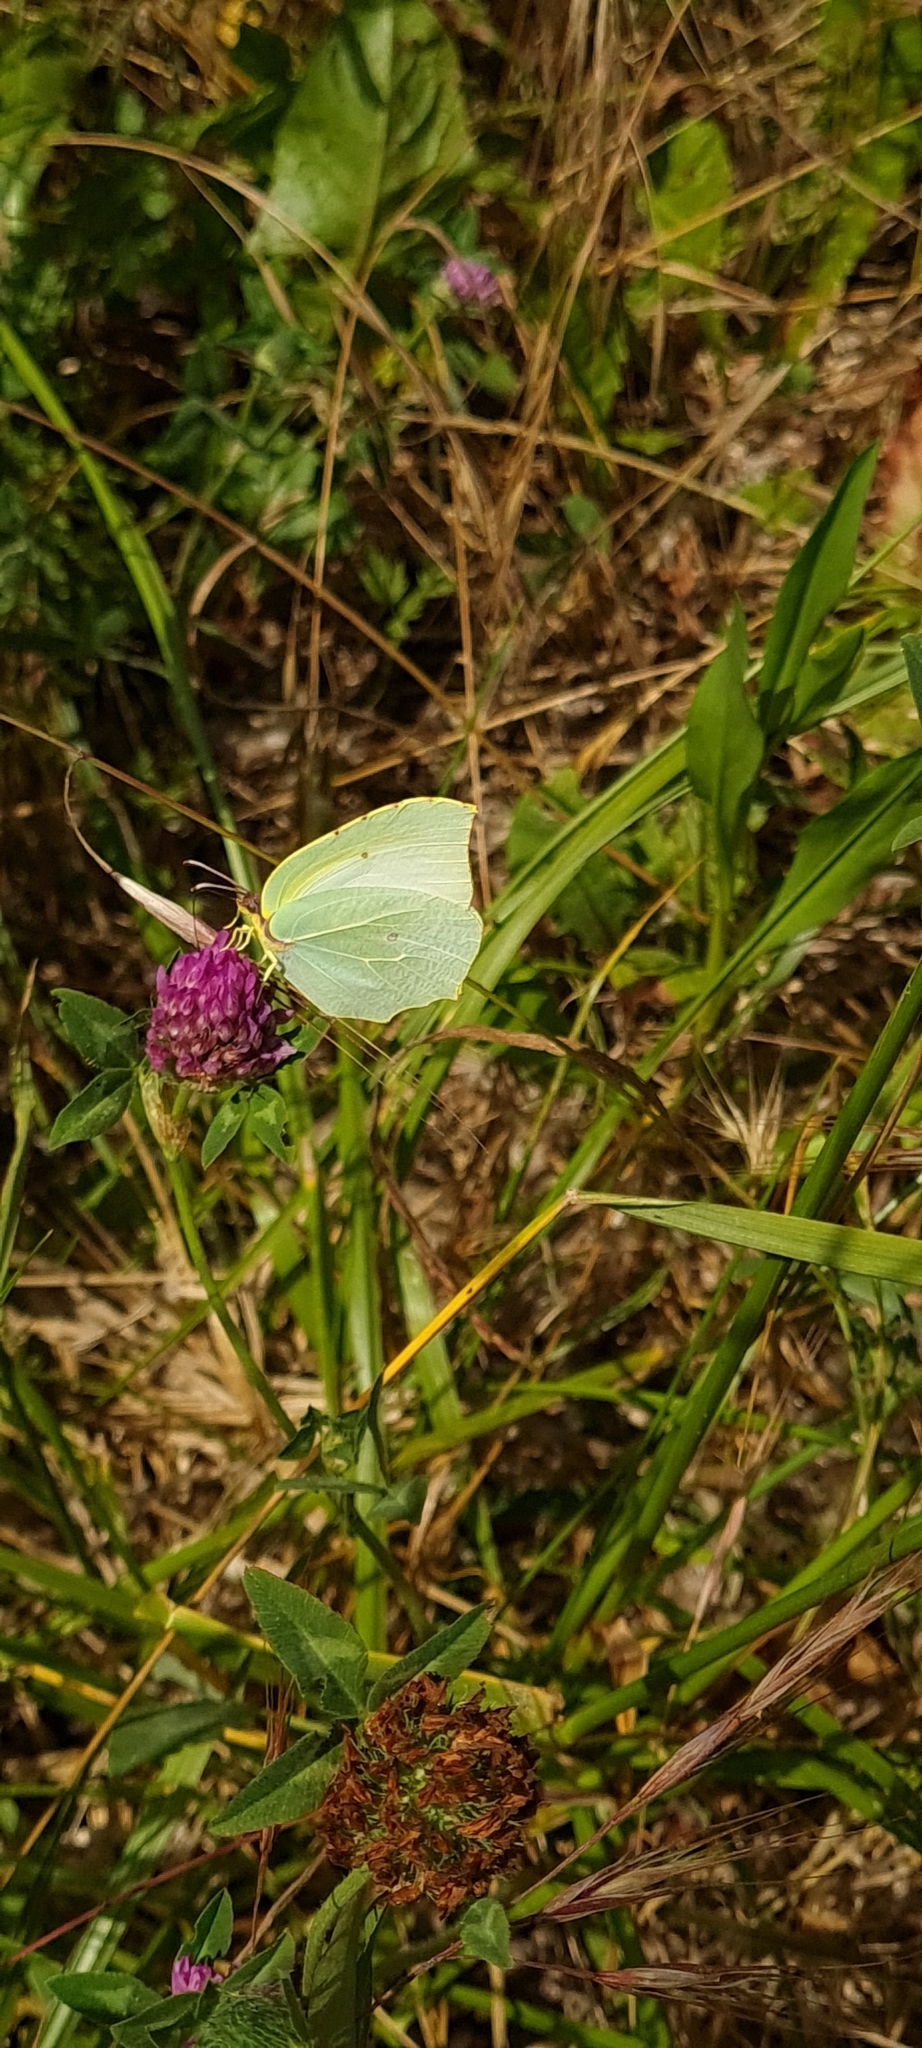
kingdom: Animalia
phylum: Arthropoda
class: Insecta
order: Lepidoptera
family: Pieridae
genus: Gonepteryx
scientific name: Gonepteryx cleopatra
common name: Cleopatra
